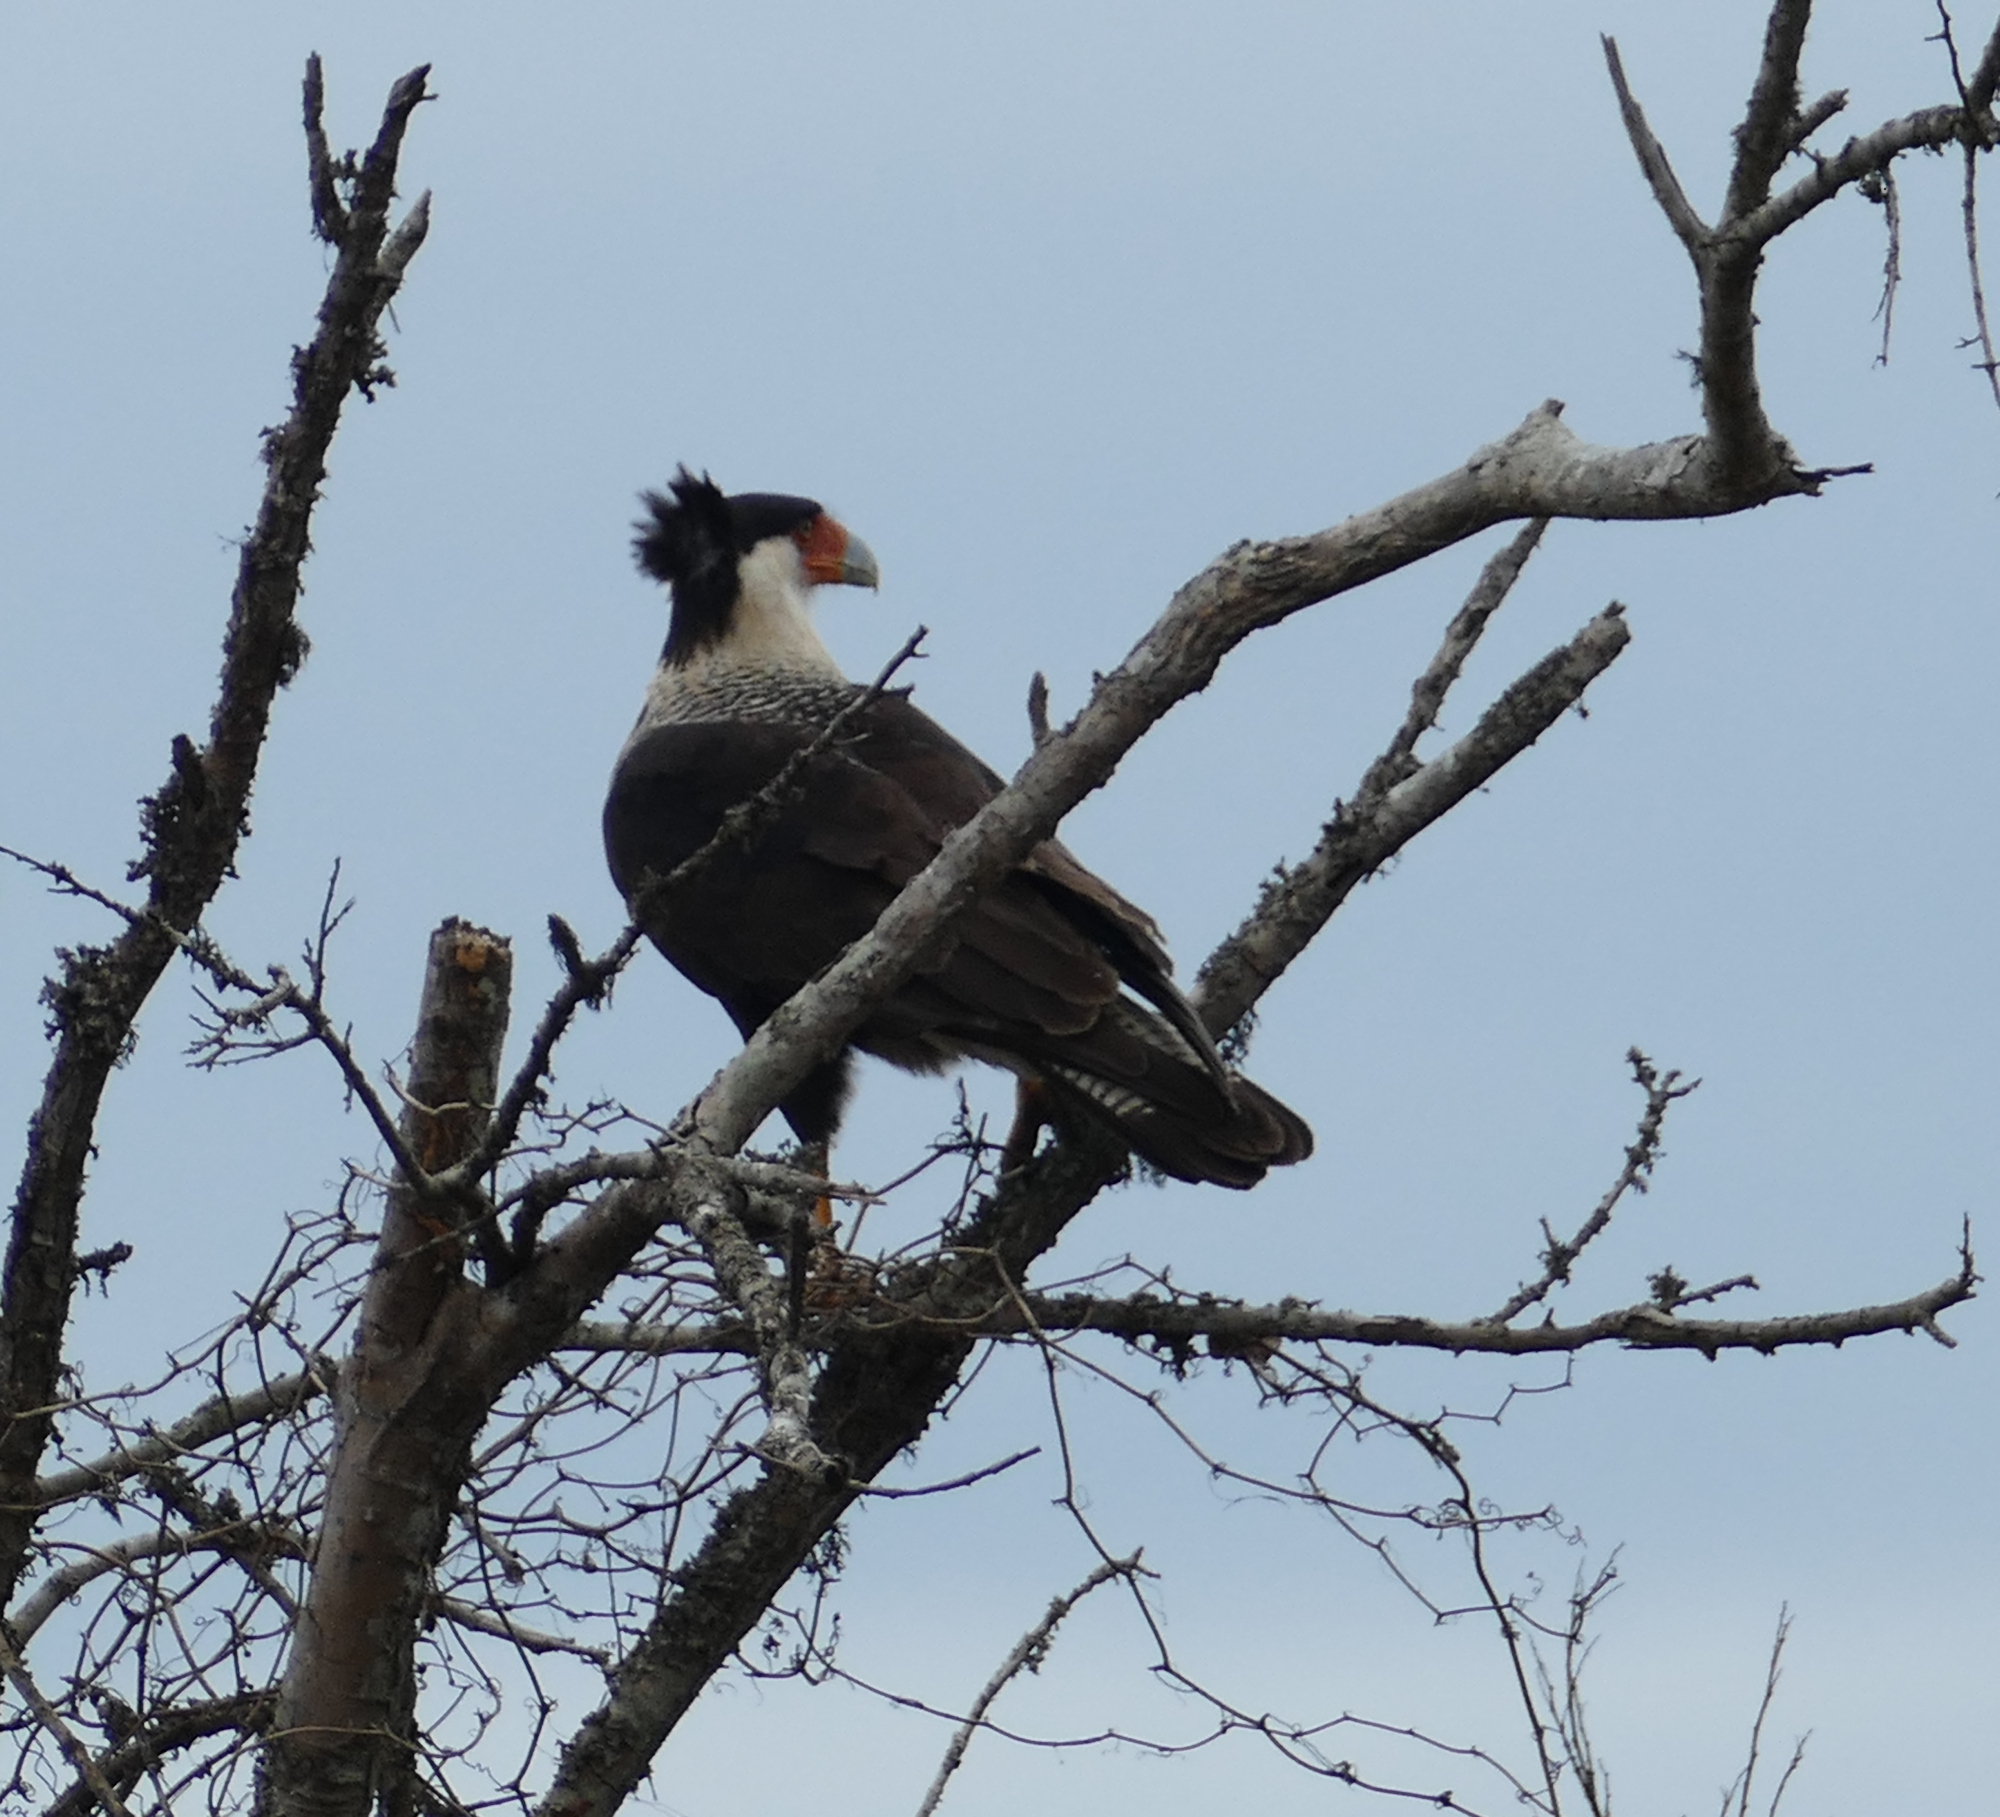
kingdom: Animalia
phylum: Chordata
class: Aves
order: Falconiformes
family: Falconidae
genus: Caracara
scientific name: Caracara plancus
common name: Southern caracara
